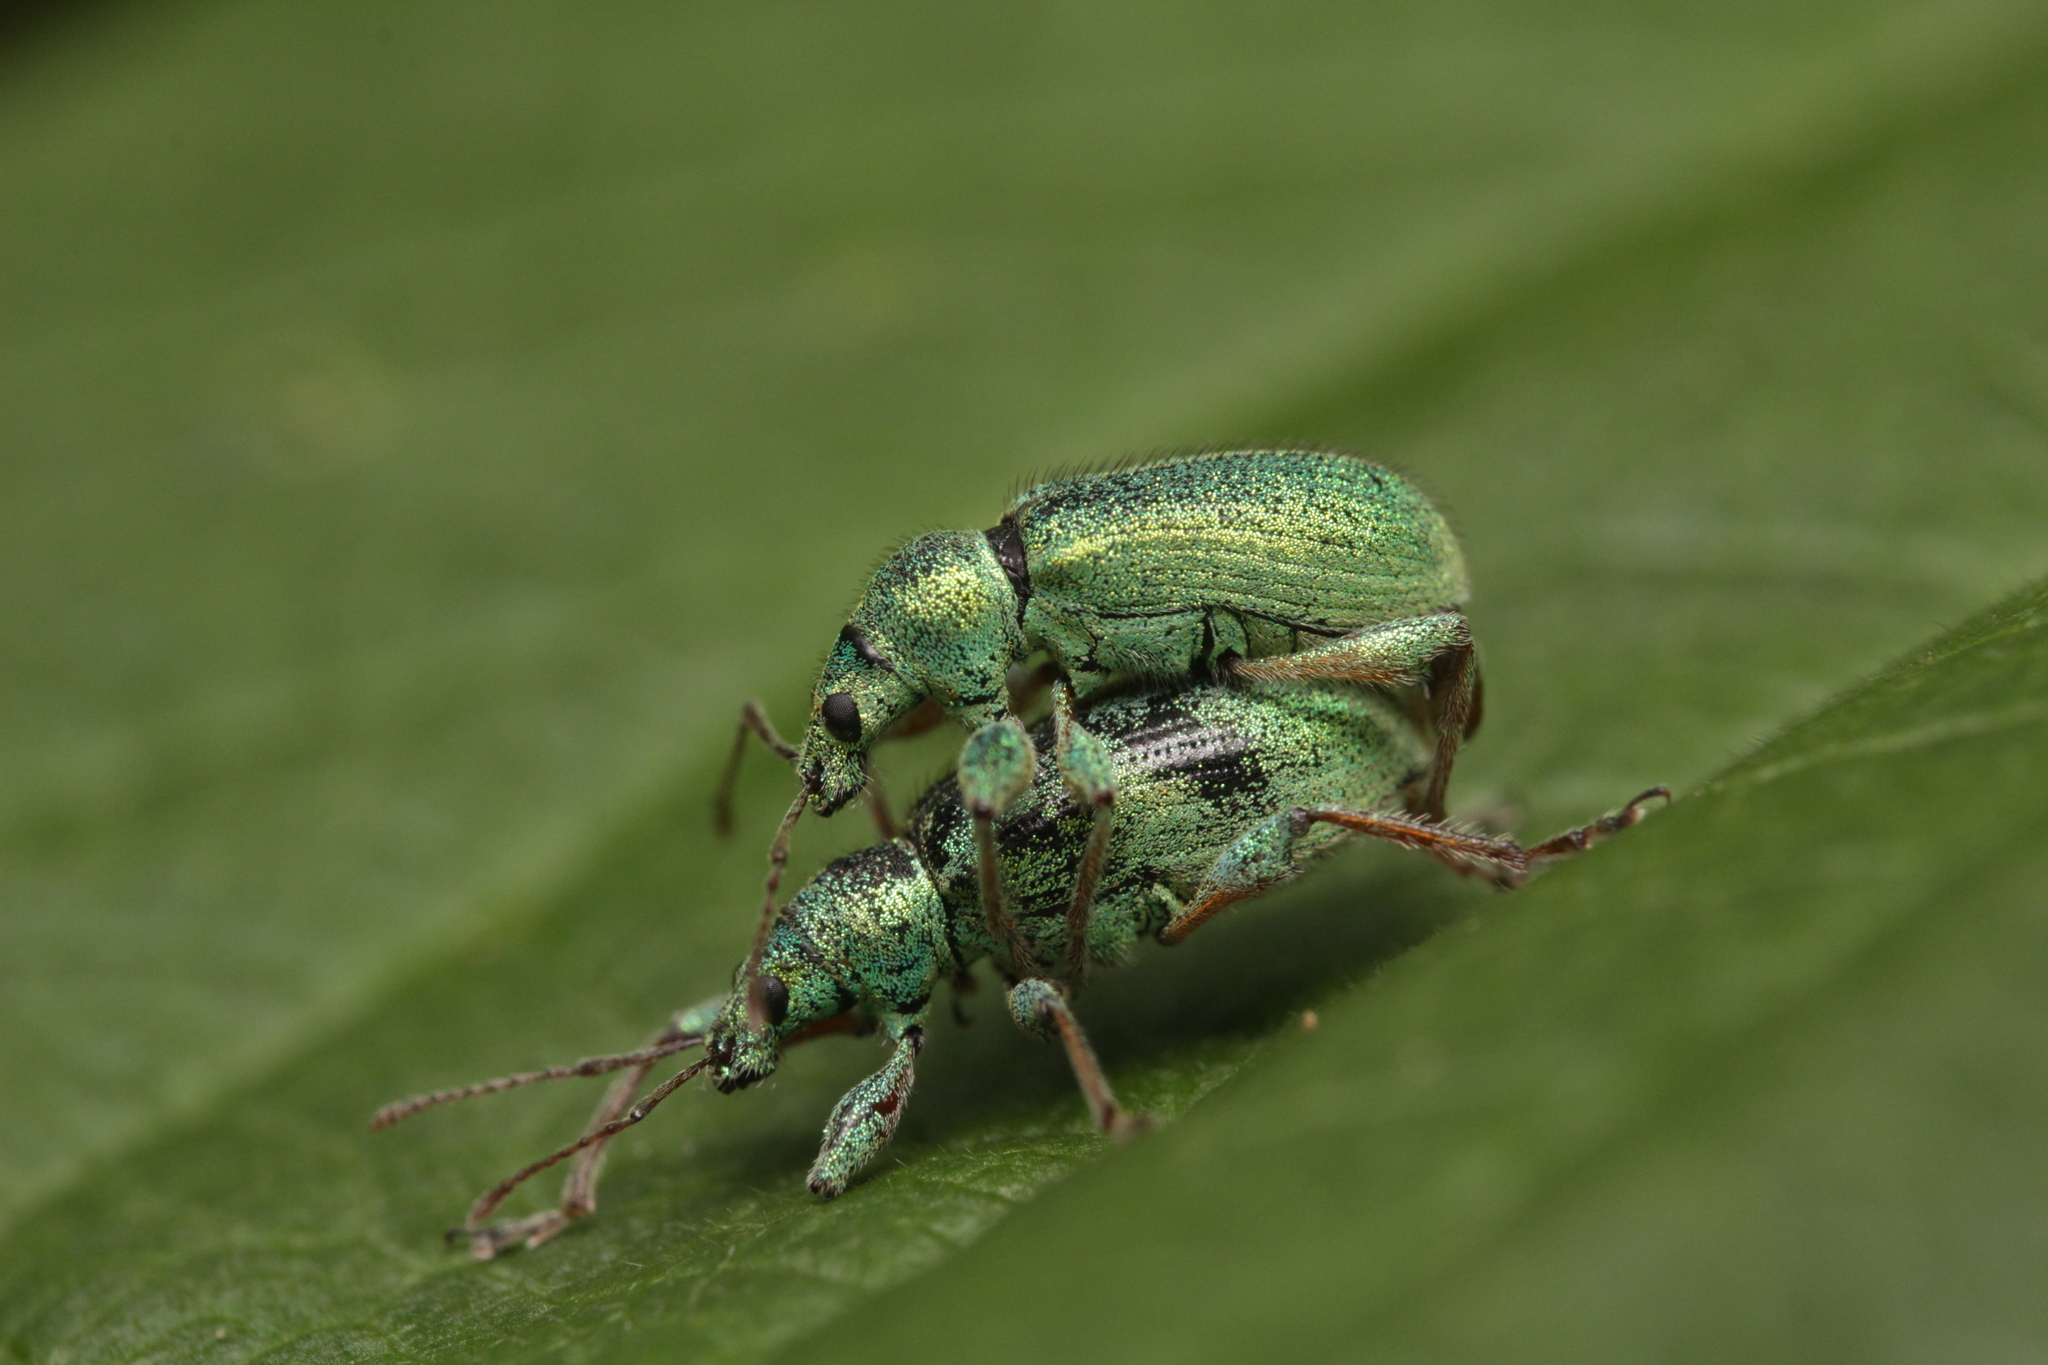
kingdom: Animalia
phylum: Arthropoda
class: Insecta
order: Coleoptera
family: Curculionidae
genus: Phyllobius
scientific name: Phyllobius arborator
